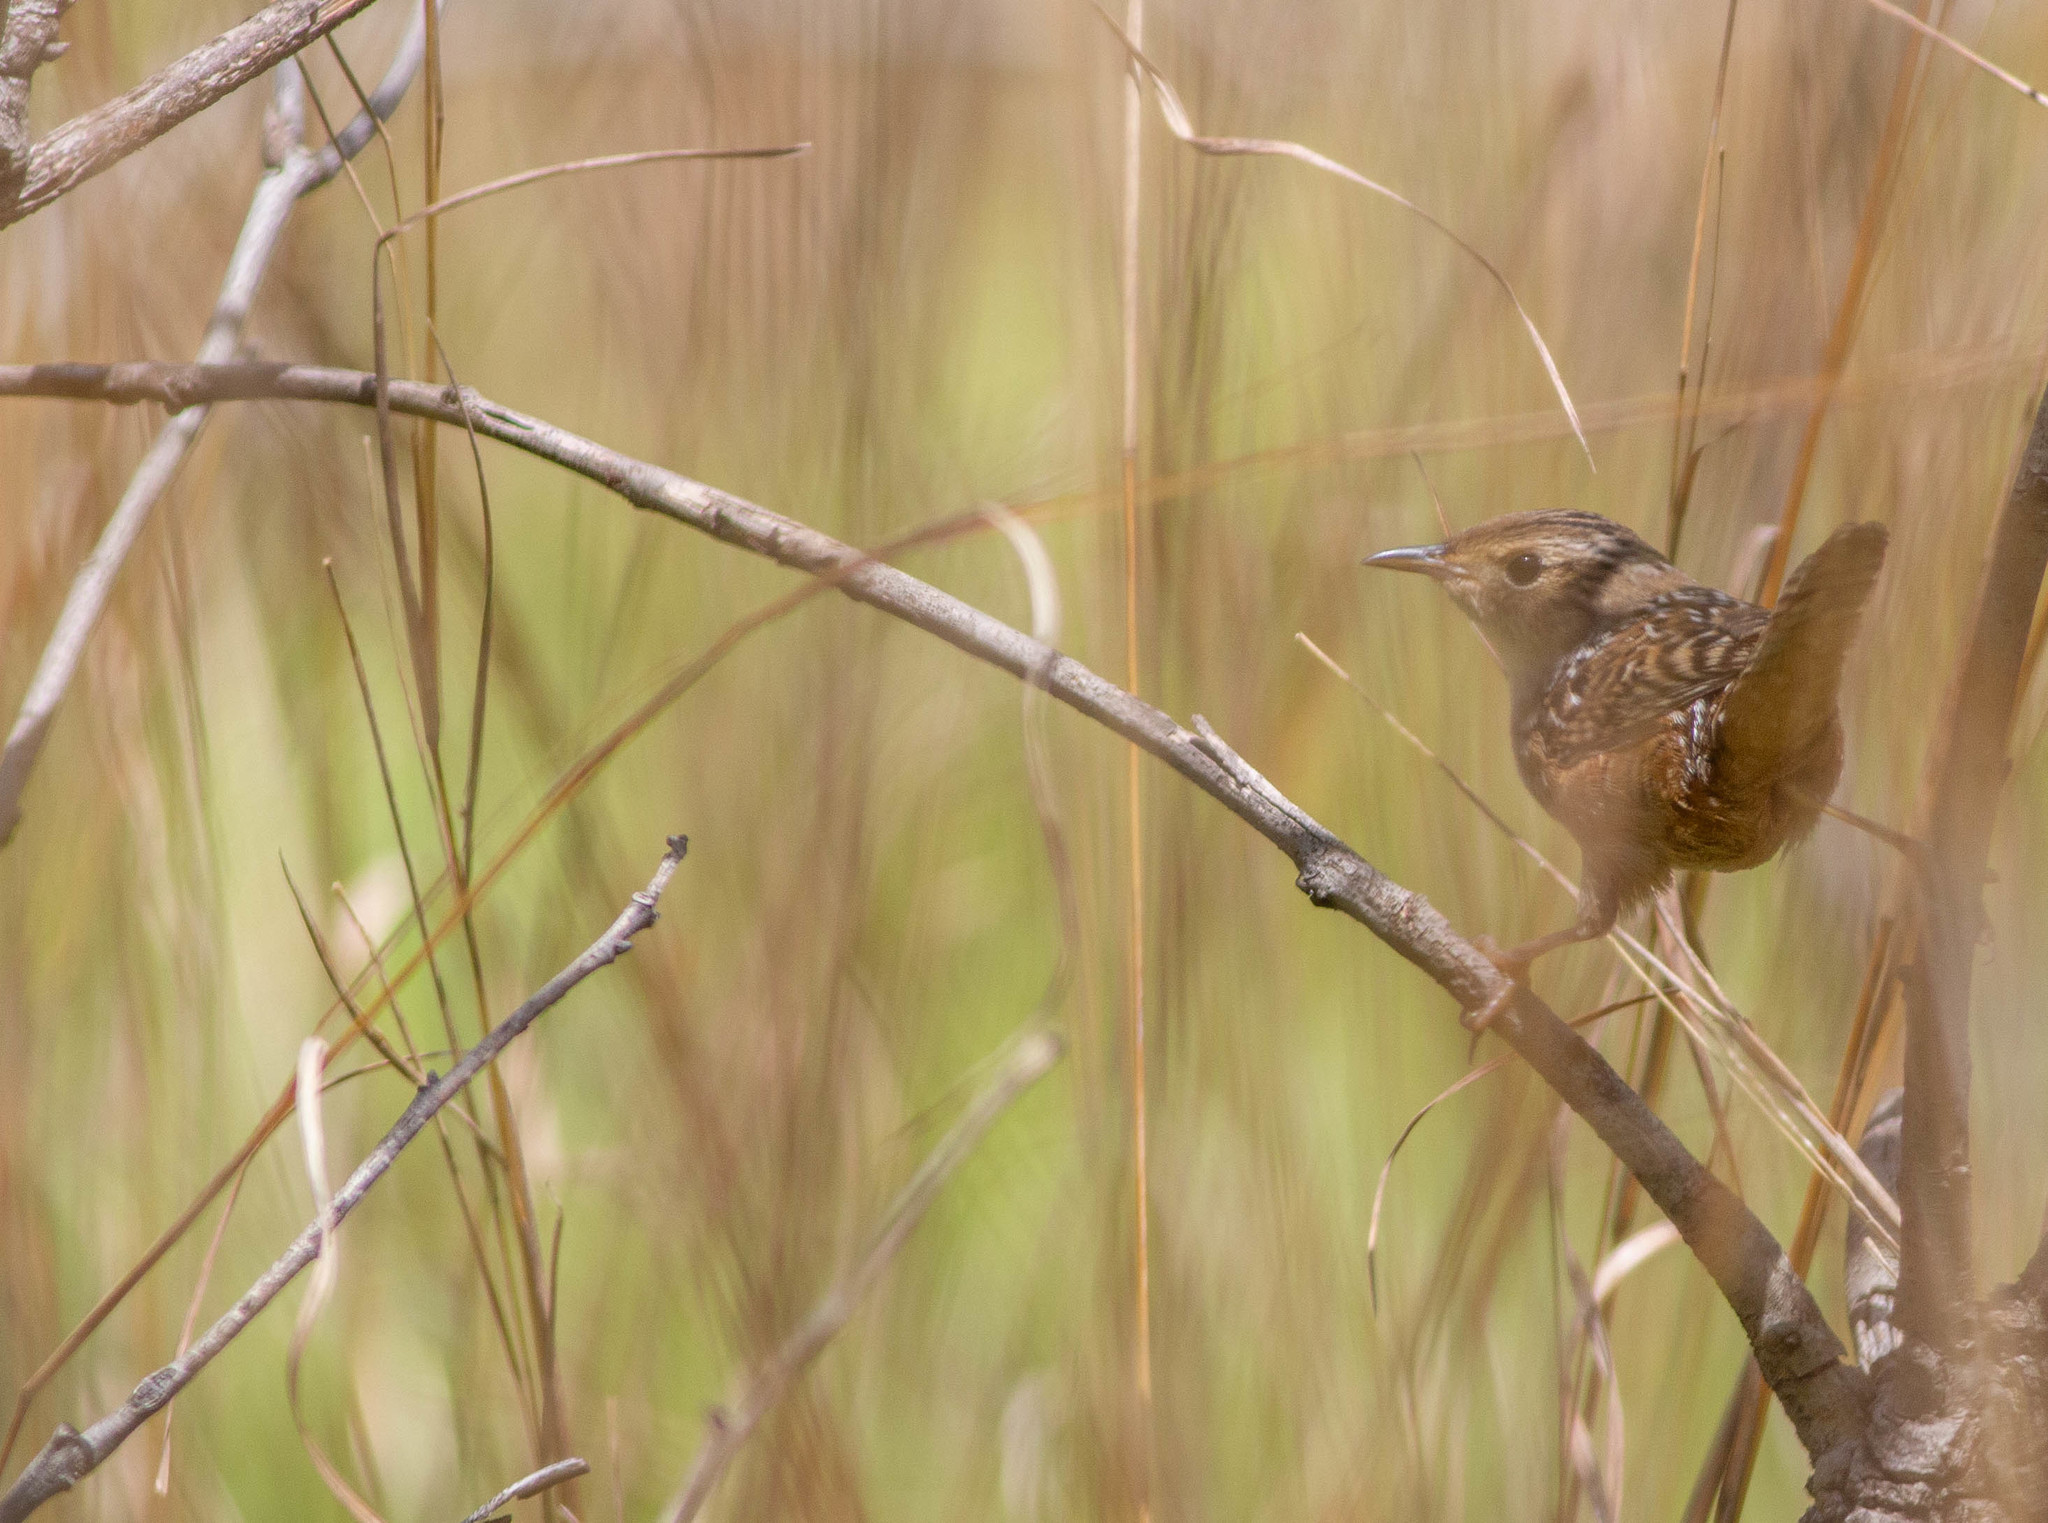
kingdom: Animalia
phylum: Chordata
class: Aves
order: Passeriformes
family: Parulidae
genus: Setophaga
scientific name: Setophaga pinus
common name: Pine warbler
